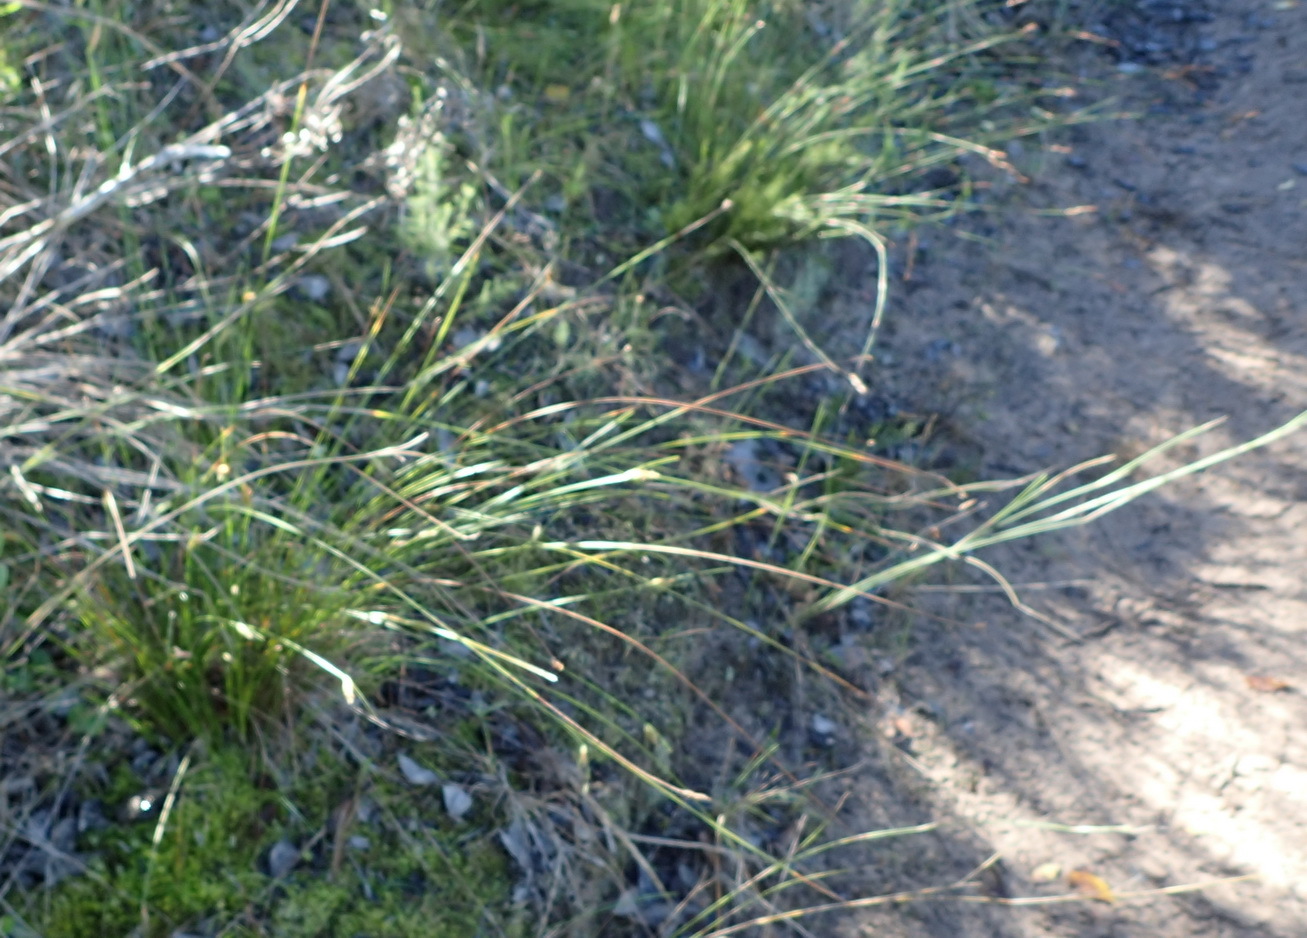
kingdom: Plantae
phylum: Tracheophyta
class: Liliopsida
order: Poales
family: Cyperaceae
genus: Ficinia
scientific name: Ficinia nigrescens
